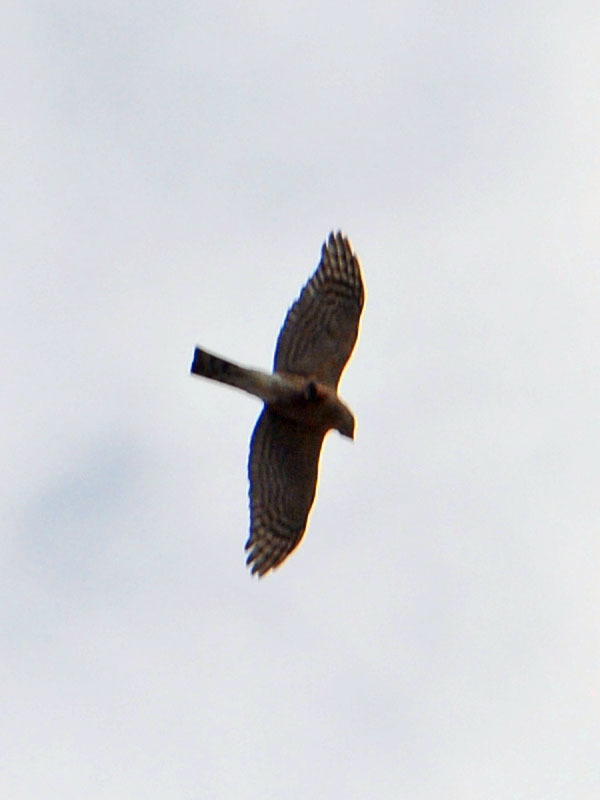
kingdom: Animalia
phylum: Chordata
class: Aves
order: Accipitriformes
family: Accipitridae
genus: Accipiter
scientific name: Accipiter striatus
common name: Sharp-shinned hawk
